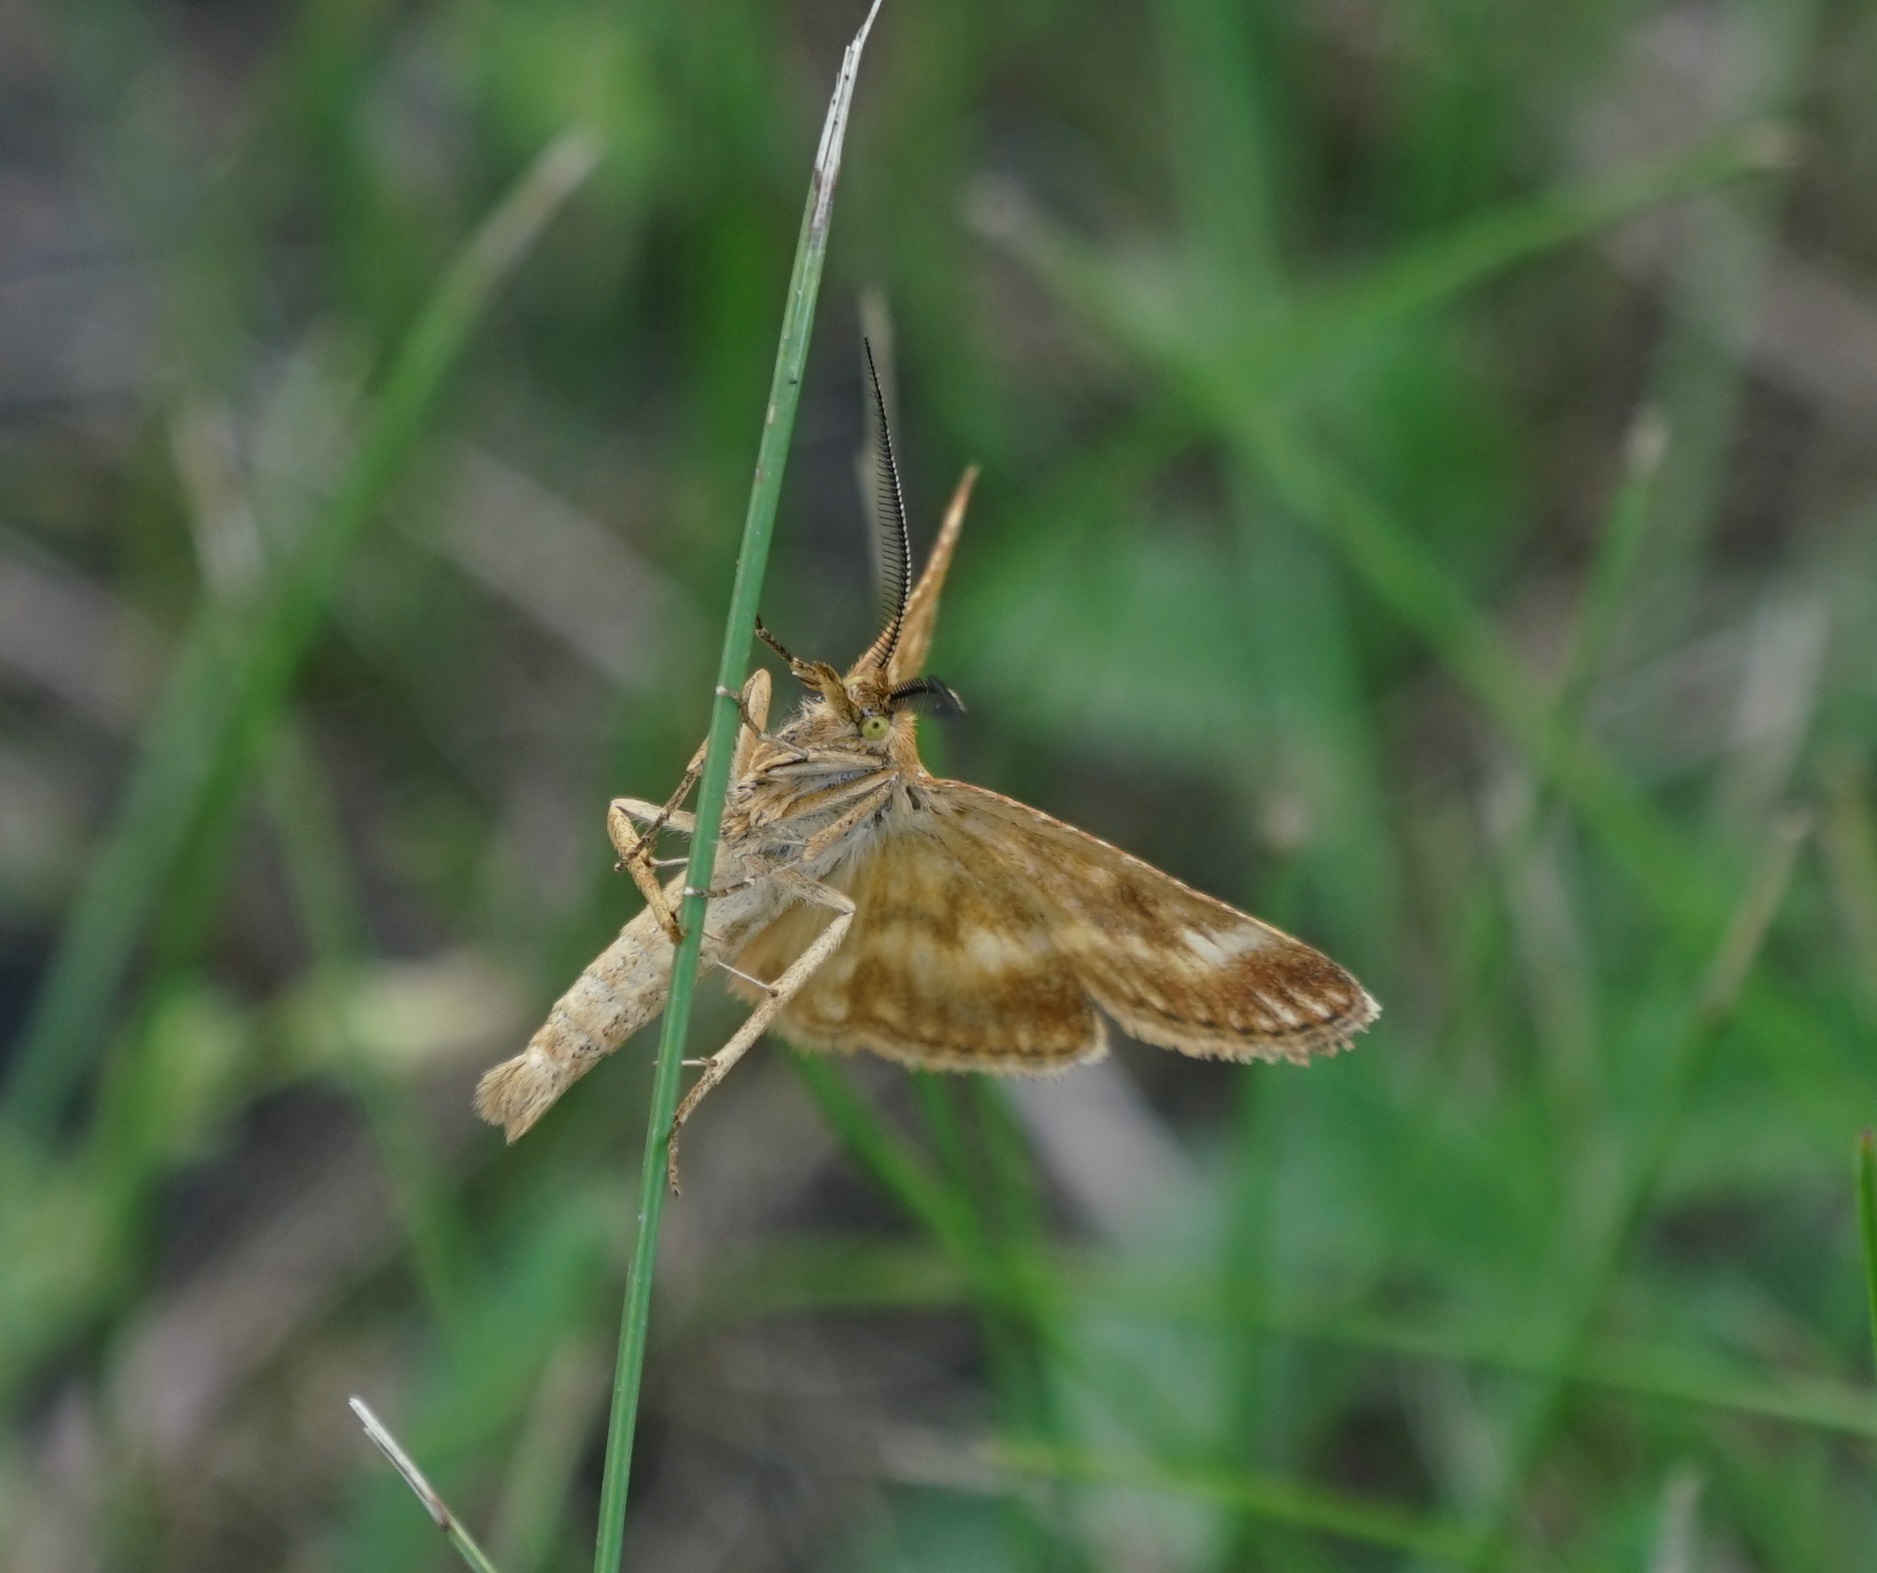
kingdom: Animalia
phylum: Arthropoda
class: Insecta
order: Lepidoptera
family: Pyralidae
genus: Synaphe
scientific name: Synaphe moldavica
